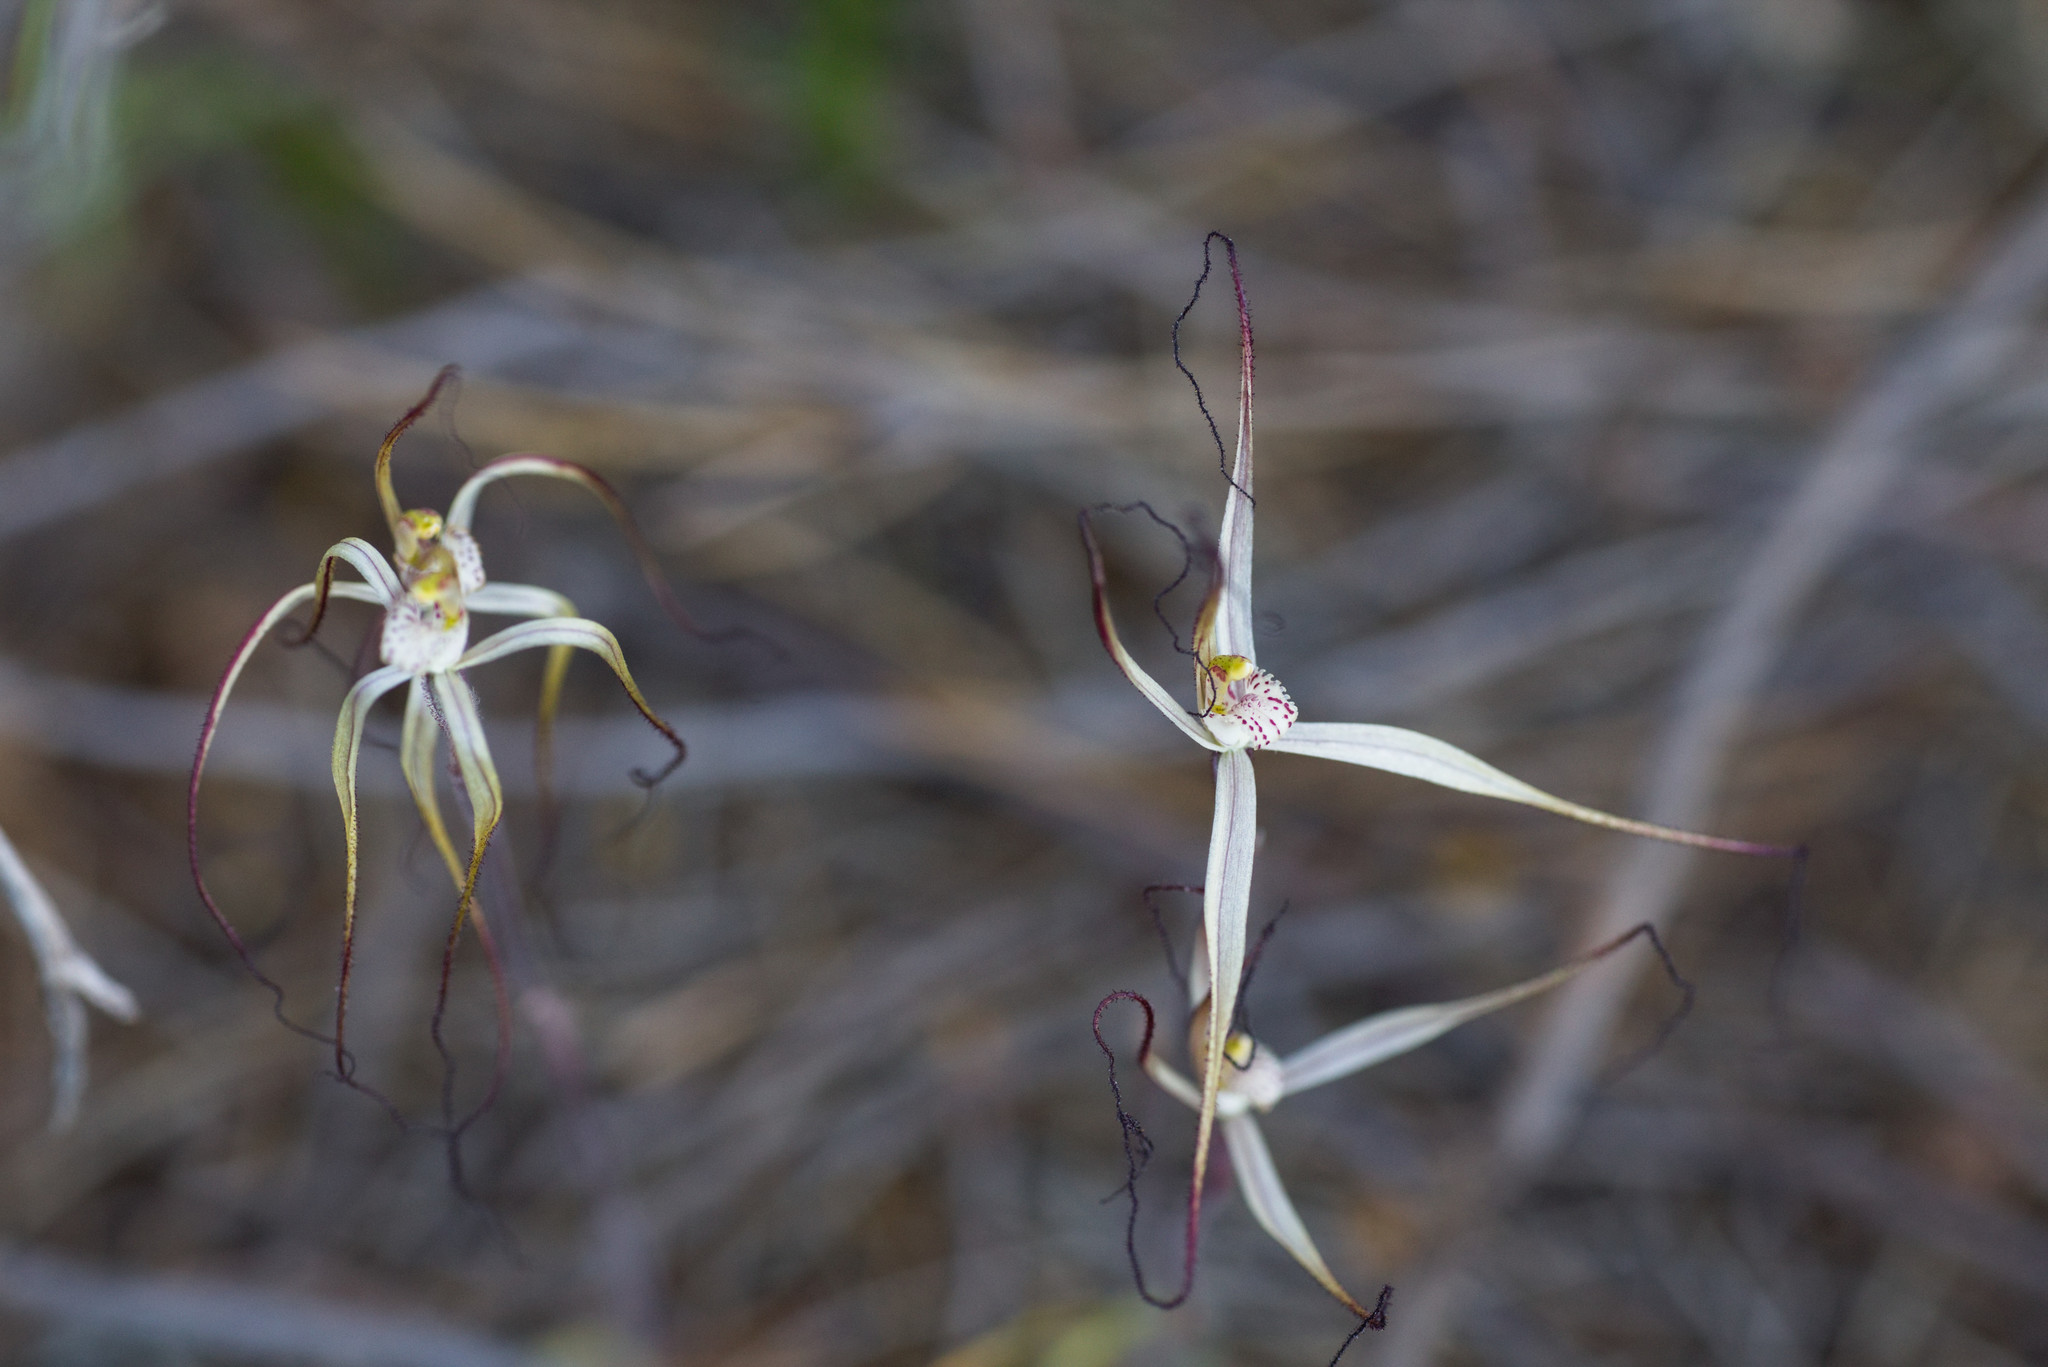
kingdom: Plantae
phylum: Tracheophyta
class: Liliopsida
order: Asparagales
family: Orchidaceae
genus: Caladenia
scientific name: Caladenia dimidia
